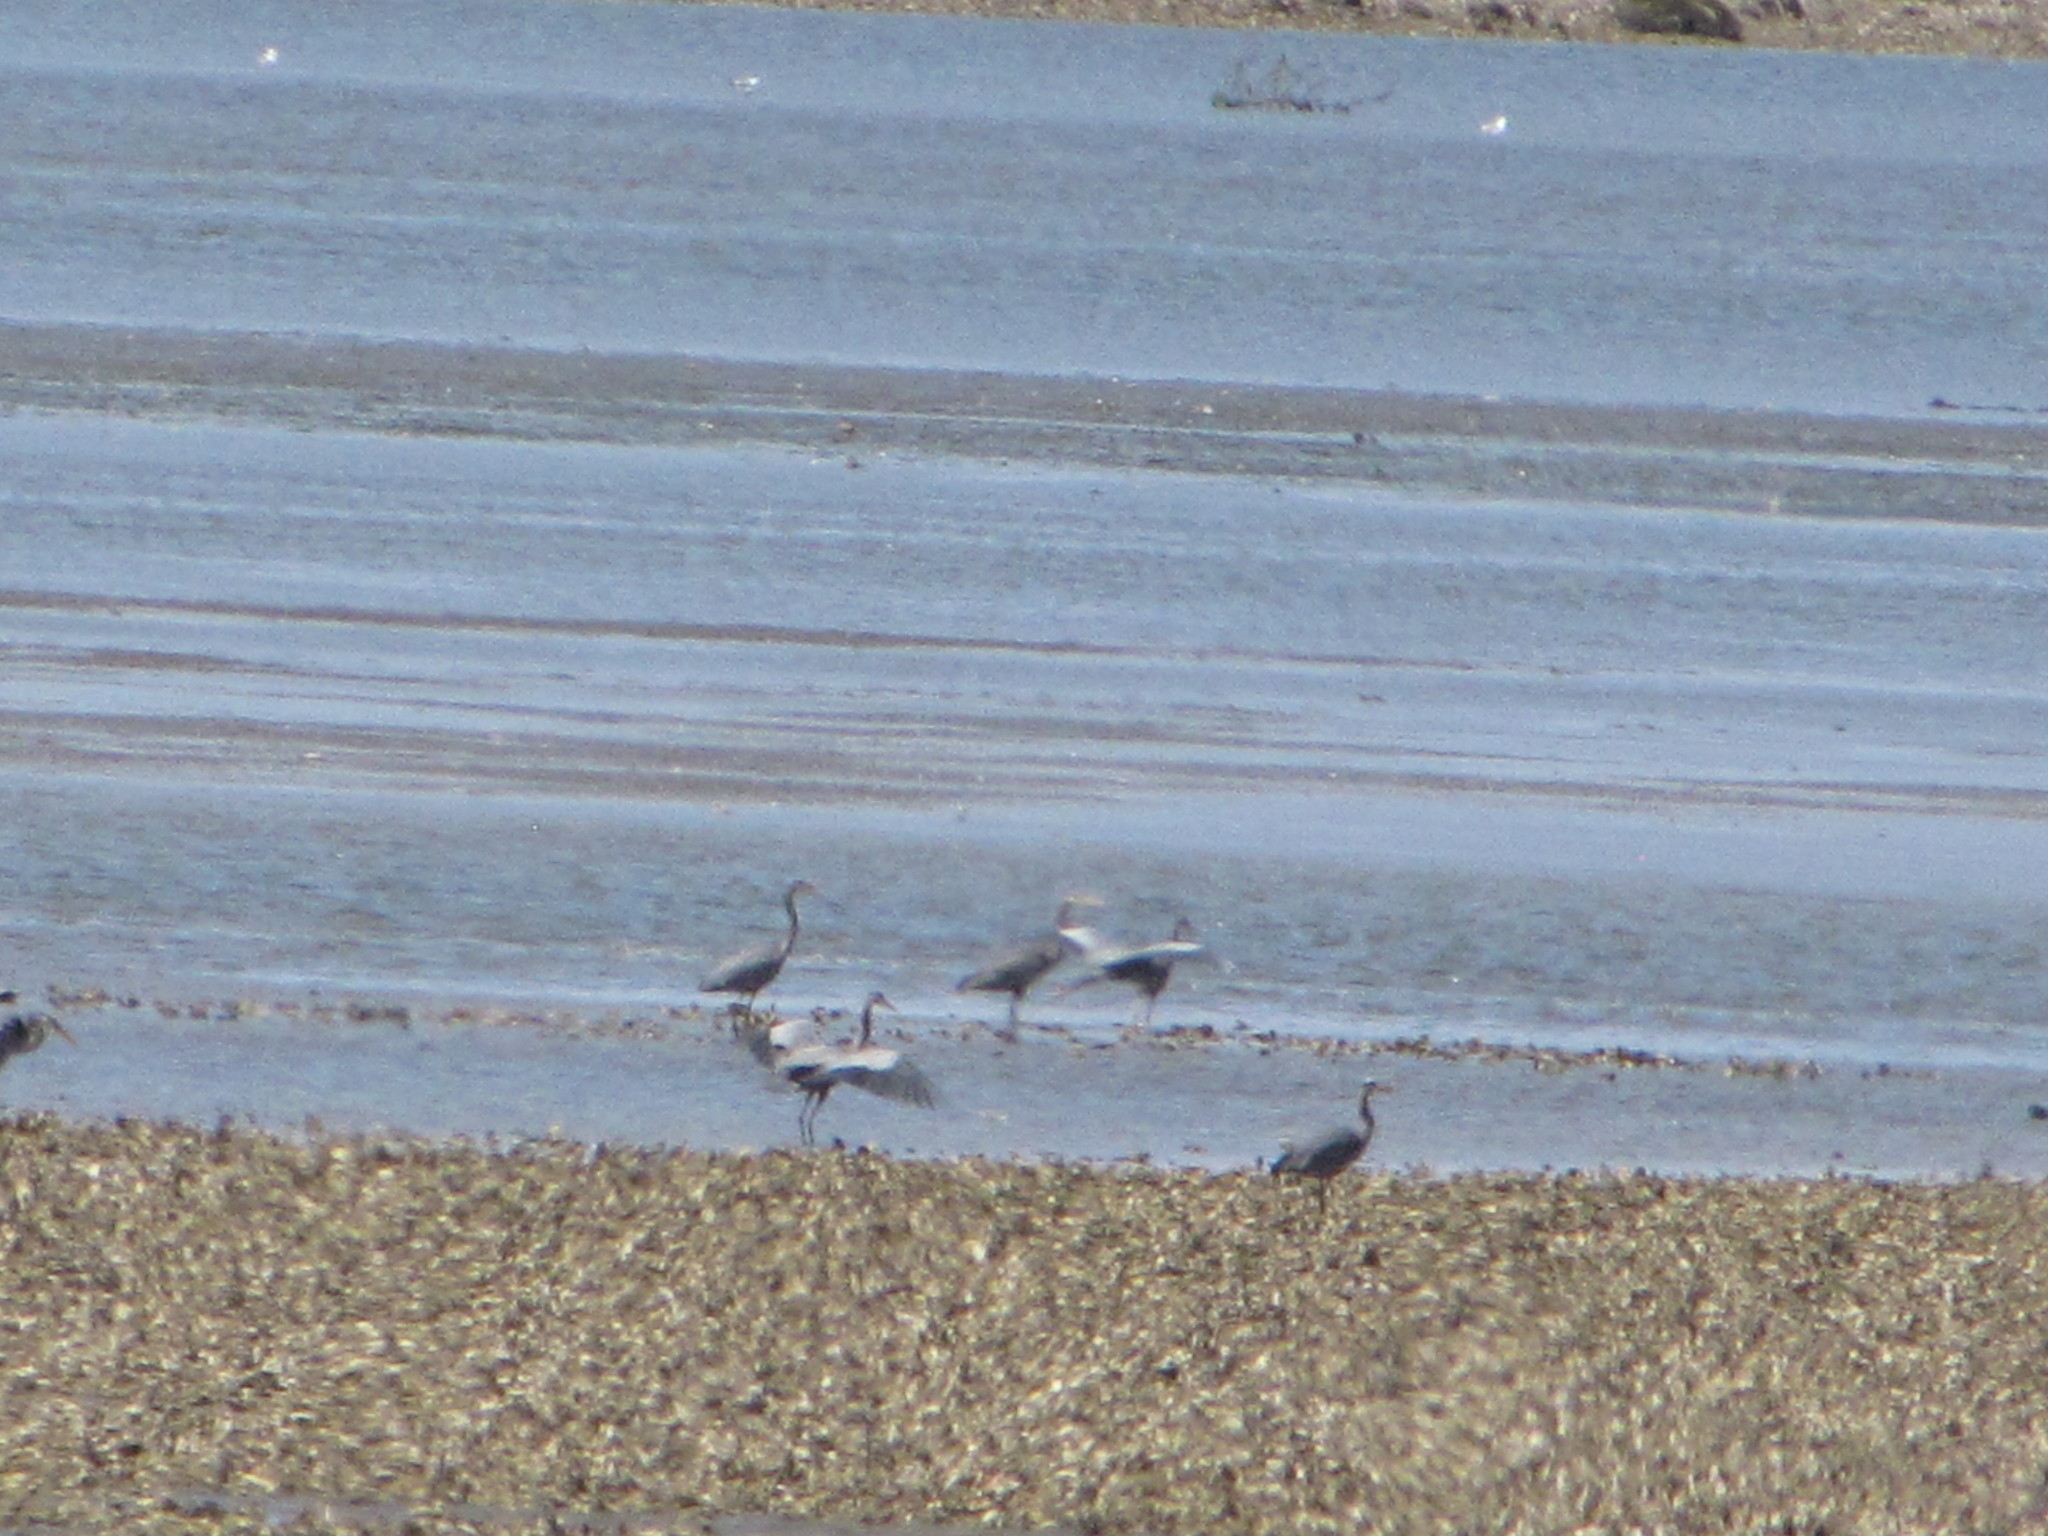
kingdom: Animalia
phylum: Chordata
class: Aves
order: Pelecaniformes
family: Ardeidae
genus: Ardea
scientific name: Ardea herodias
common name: Great blue heron
